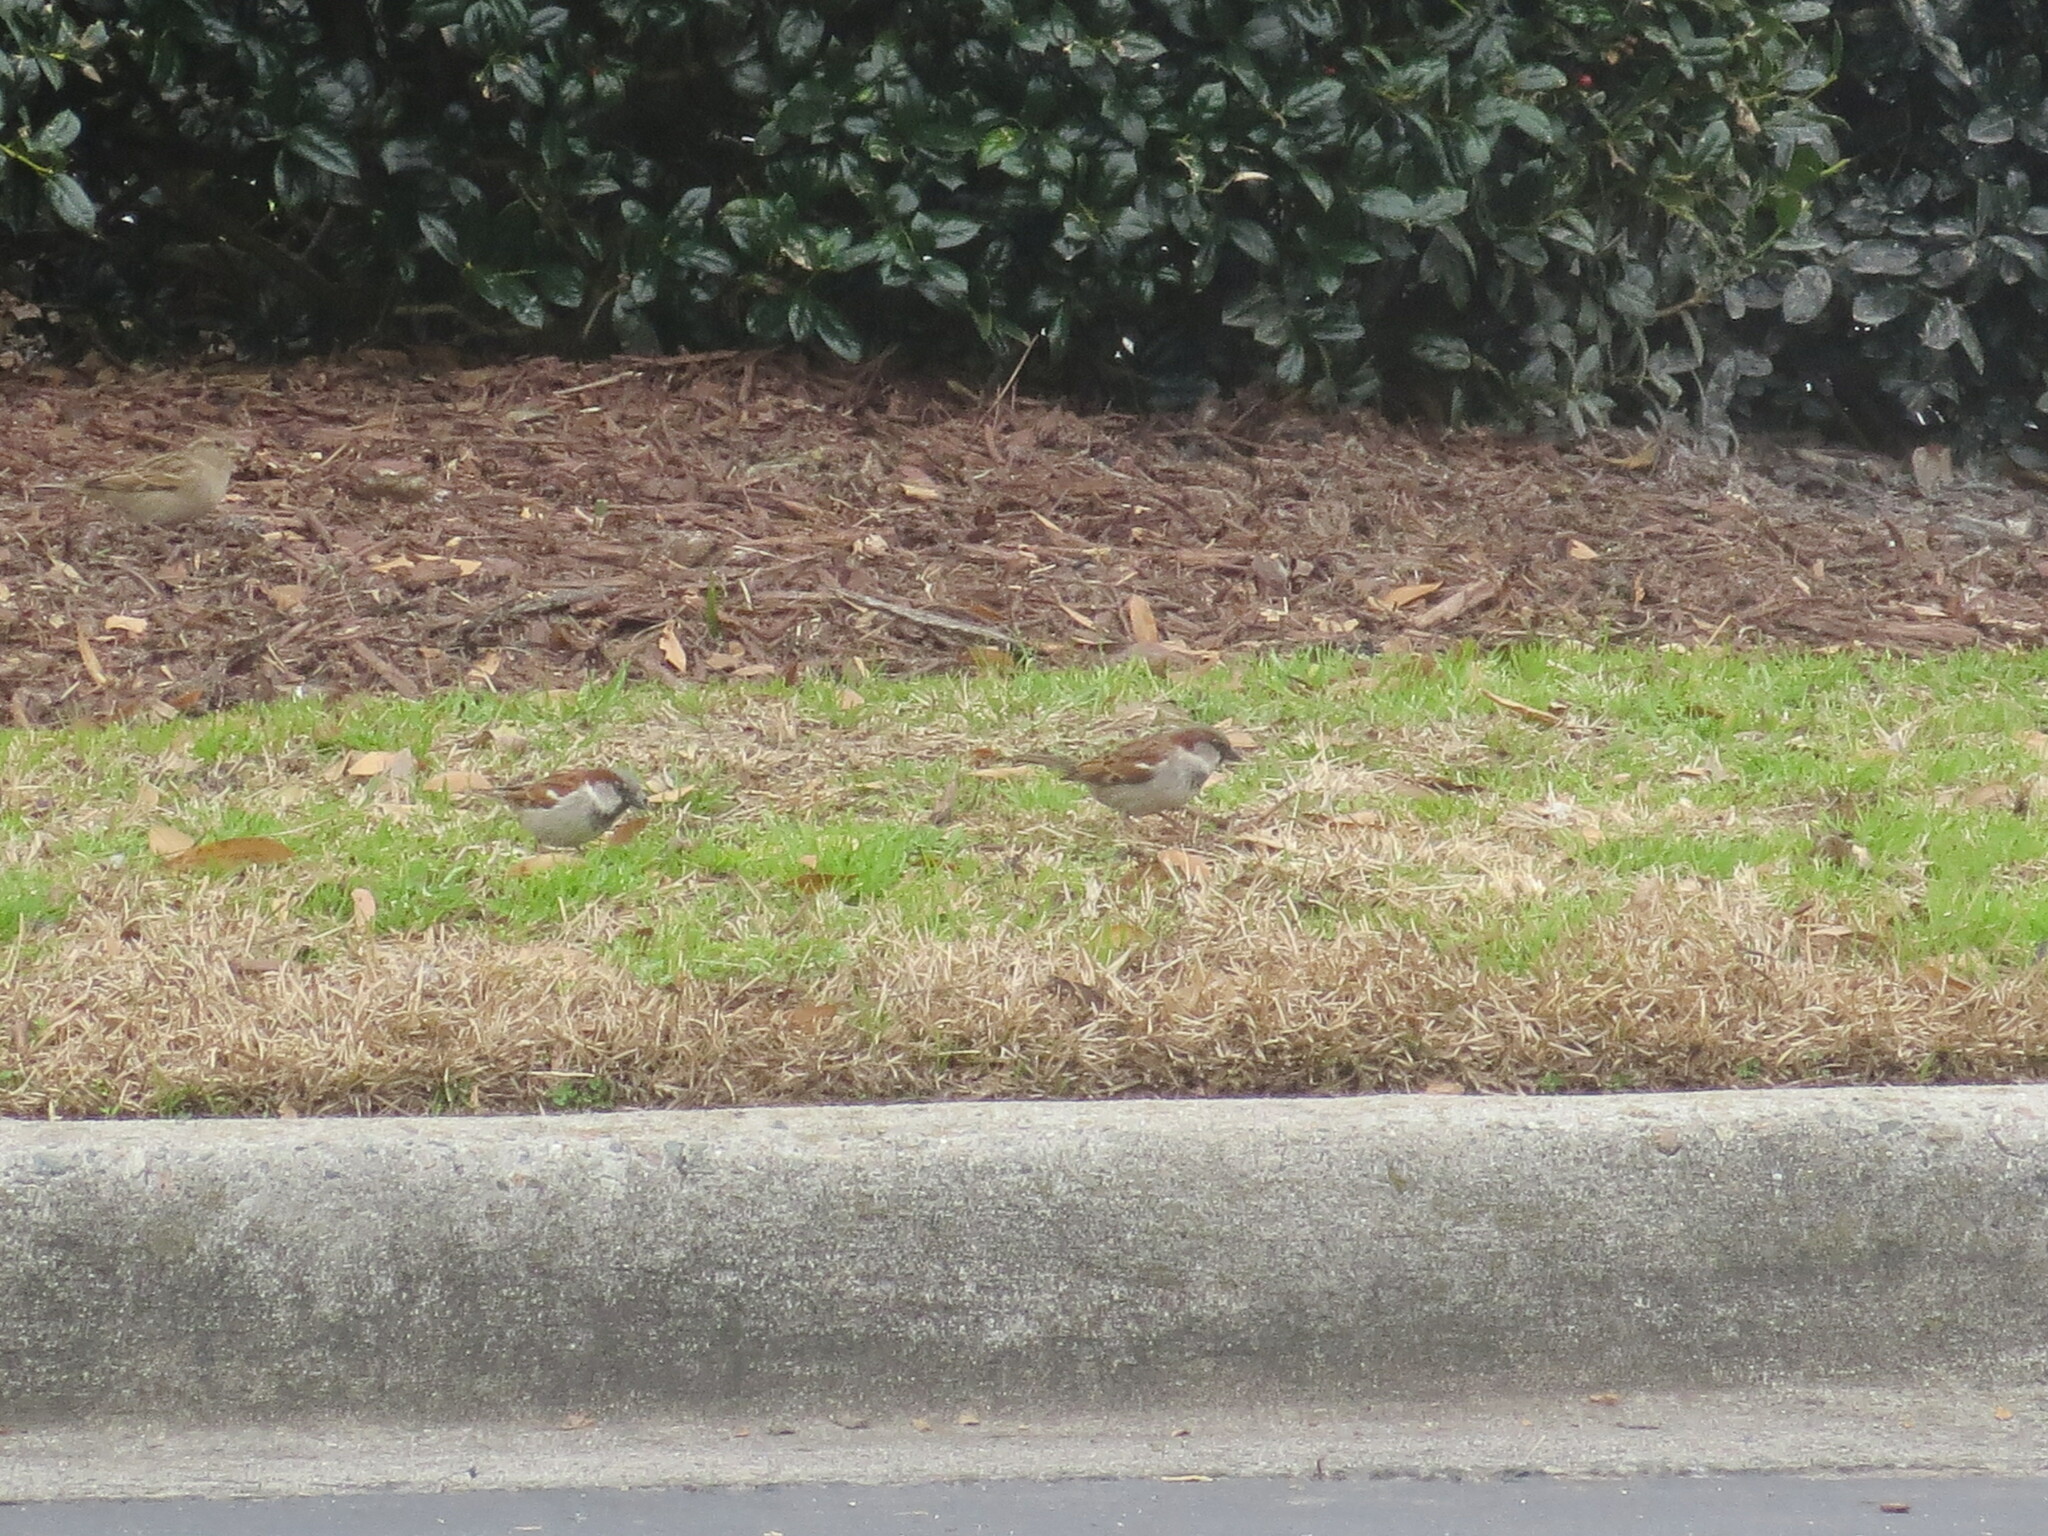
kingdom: Animalia
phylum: Chordata
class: Aves
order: Passeriformes
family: Passeridae
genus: Passer
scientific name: Passer domesticus
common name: House sparrow
